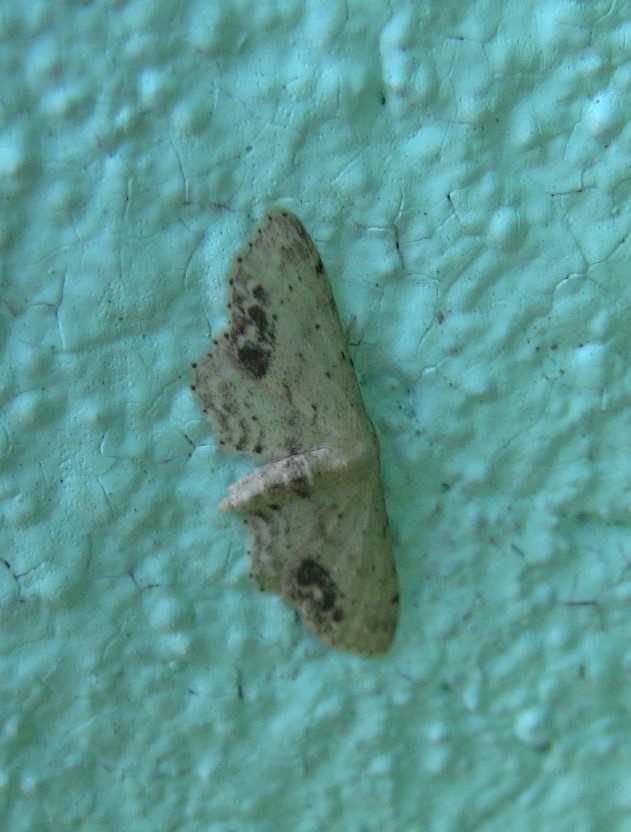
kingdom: Animalia
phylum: Arthropoda
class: Insecta
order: Lepidoptera
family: Geometridae
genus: Idaea
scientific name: Idaea dimidiata
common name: Single-dotted wave
